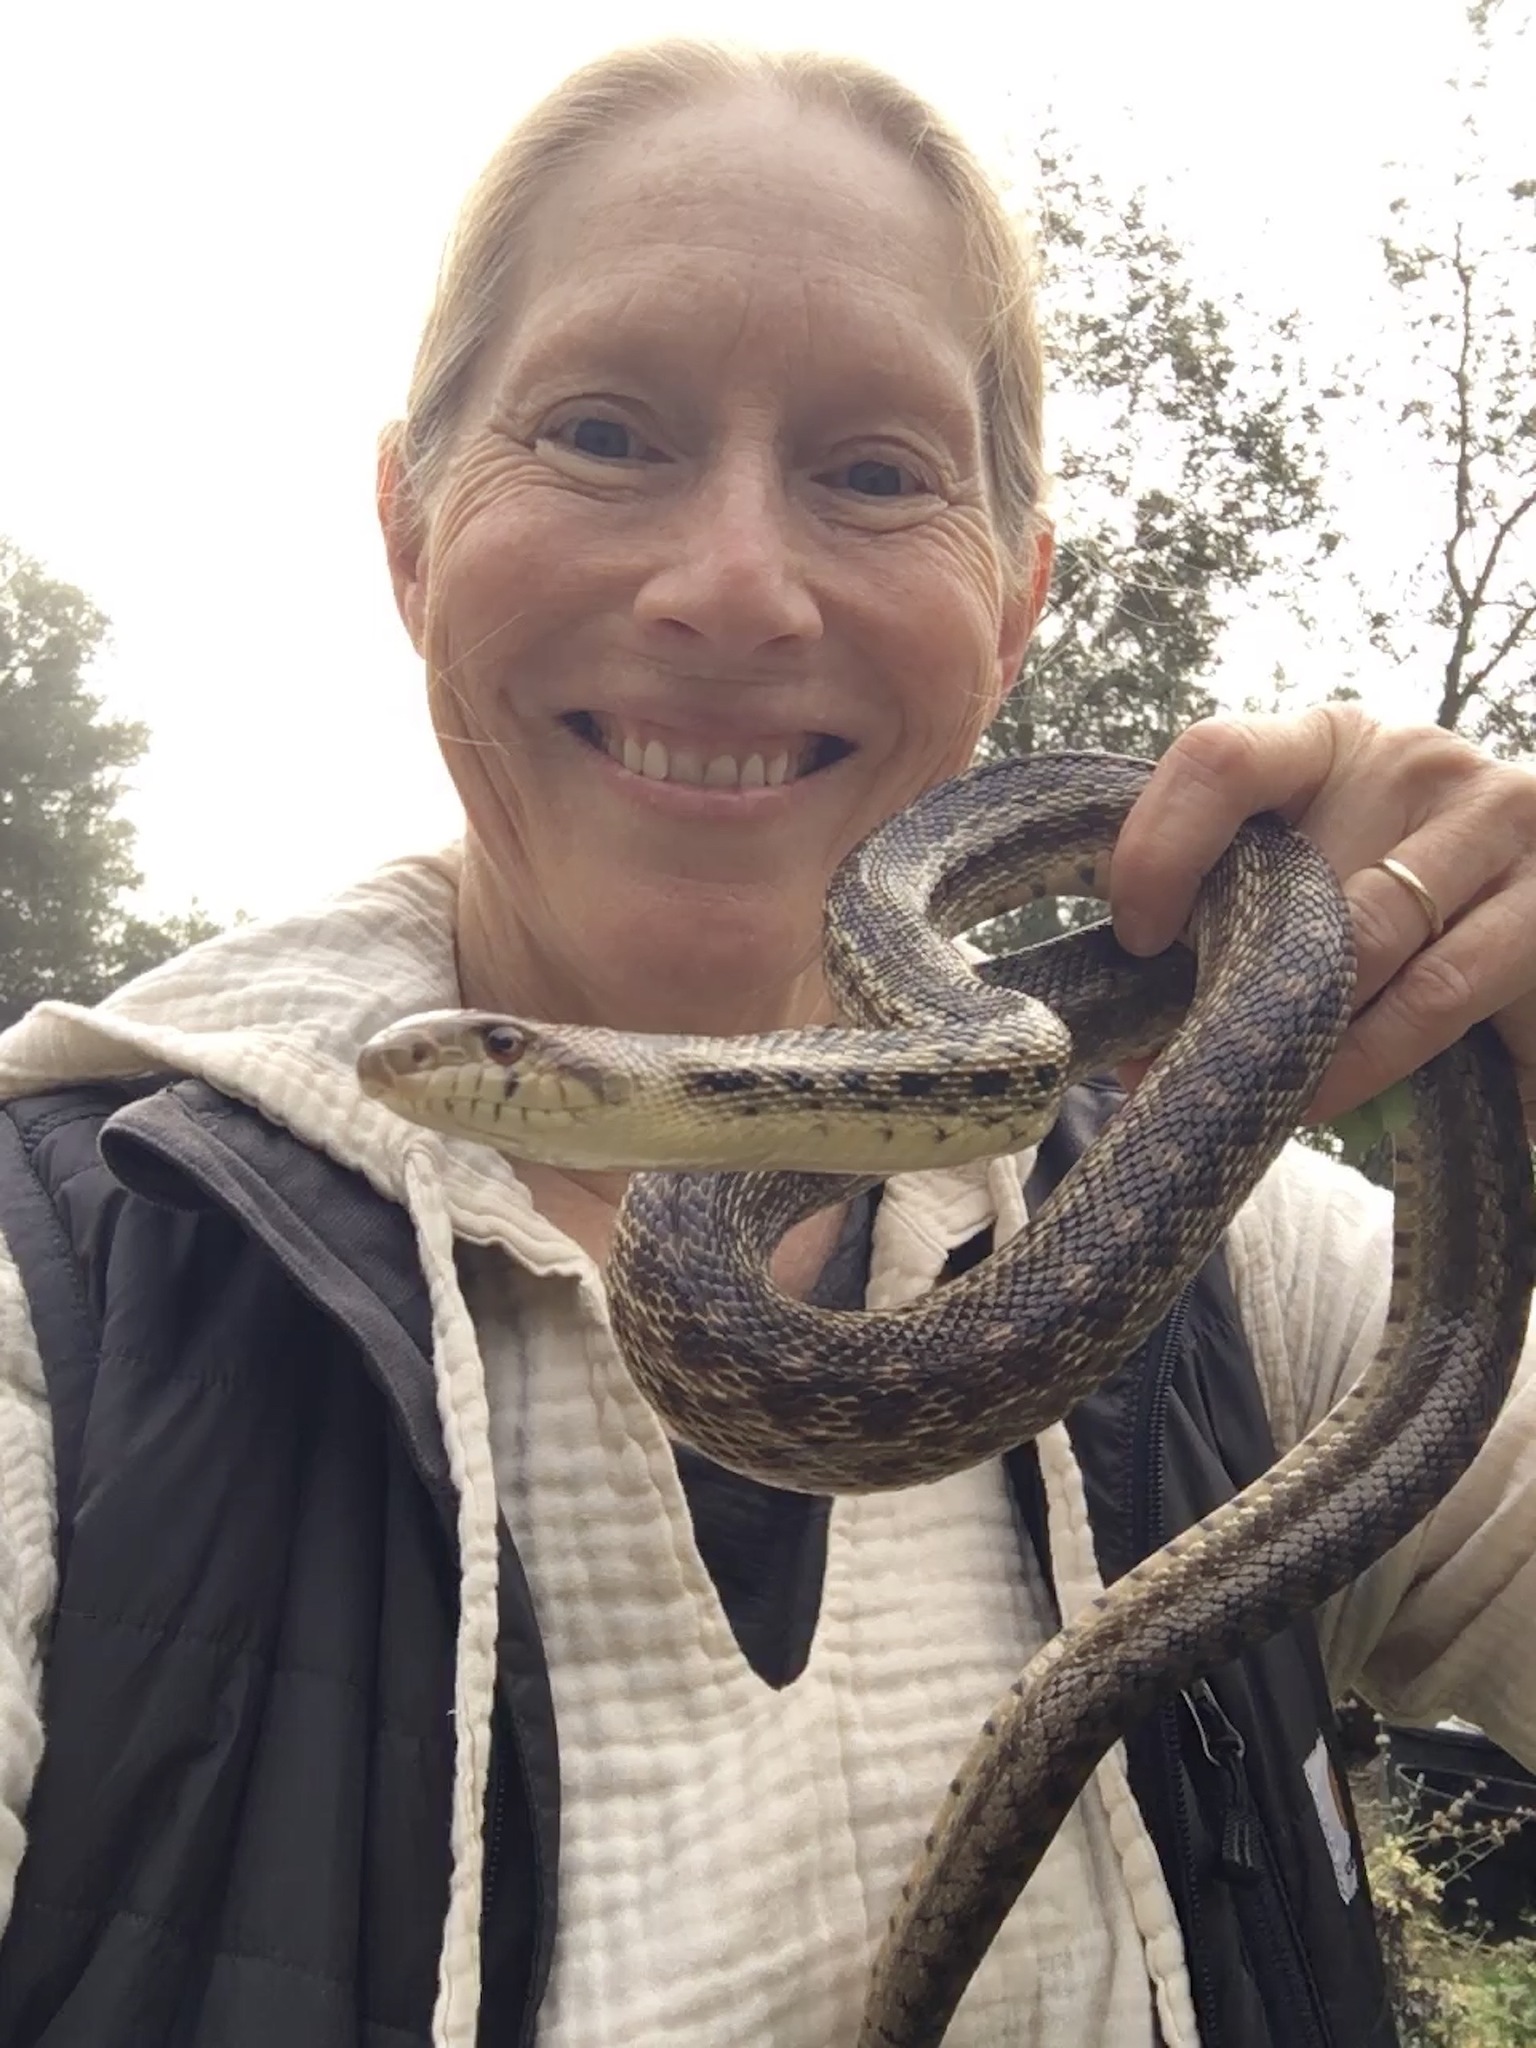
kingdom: Animalia
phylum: Chordata
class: Squamata
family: Colubridae
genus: Pituophis
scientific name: Pituophis catenifer
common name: Gopher snake
